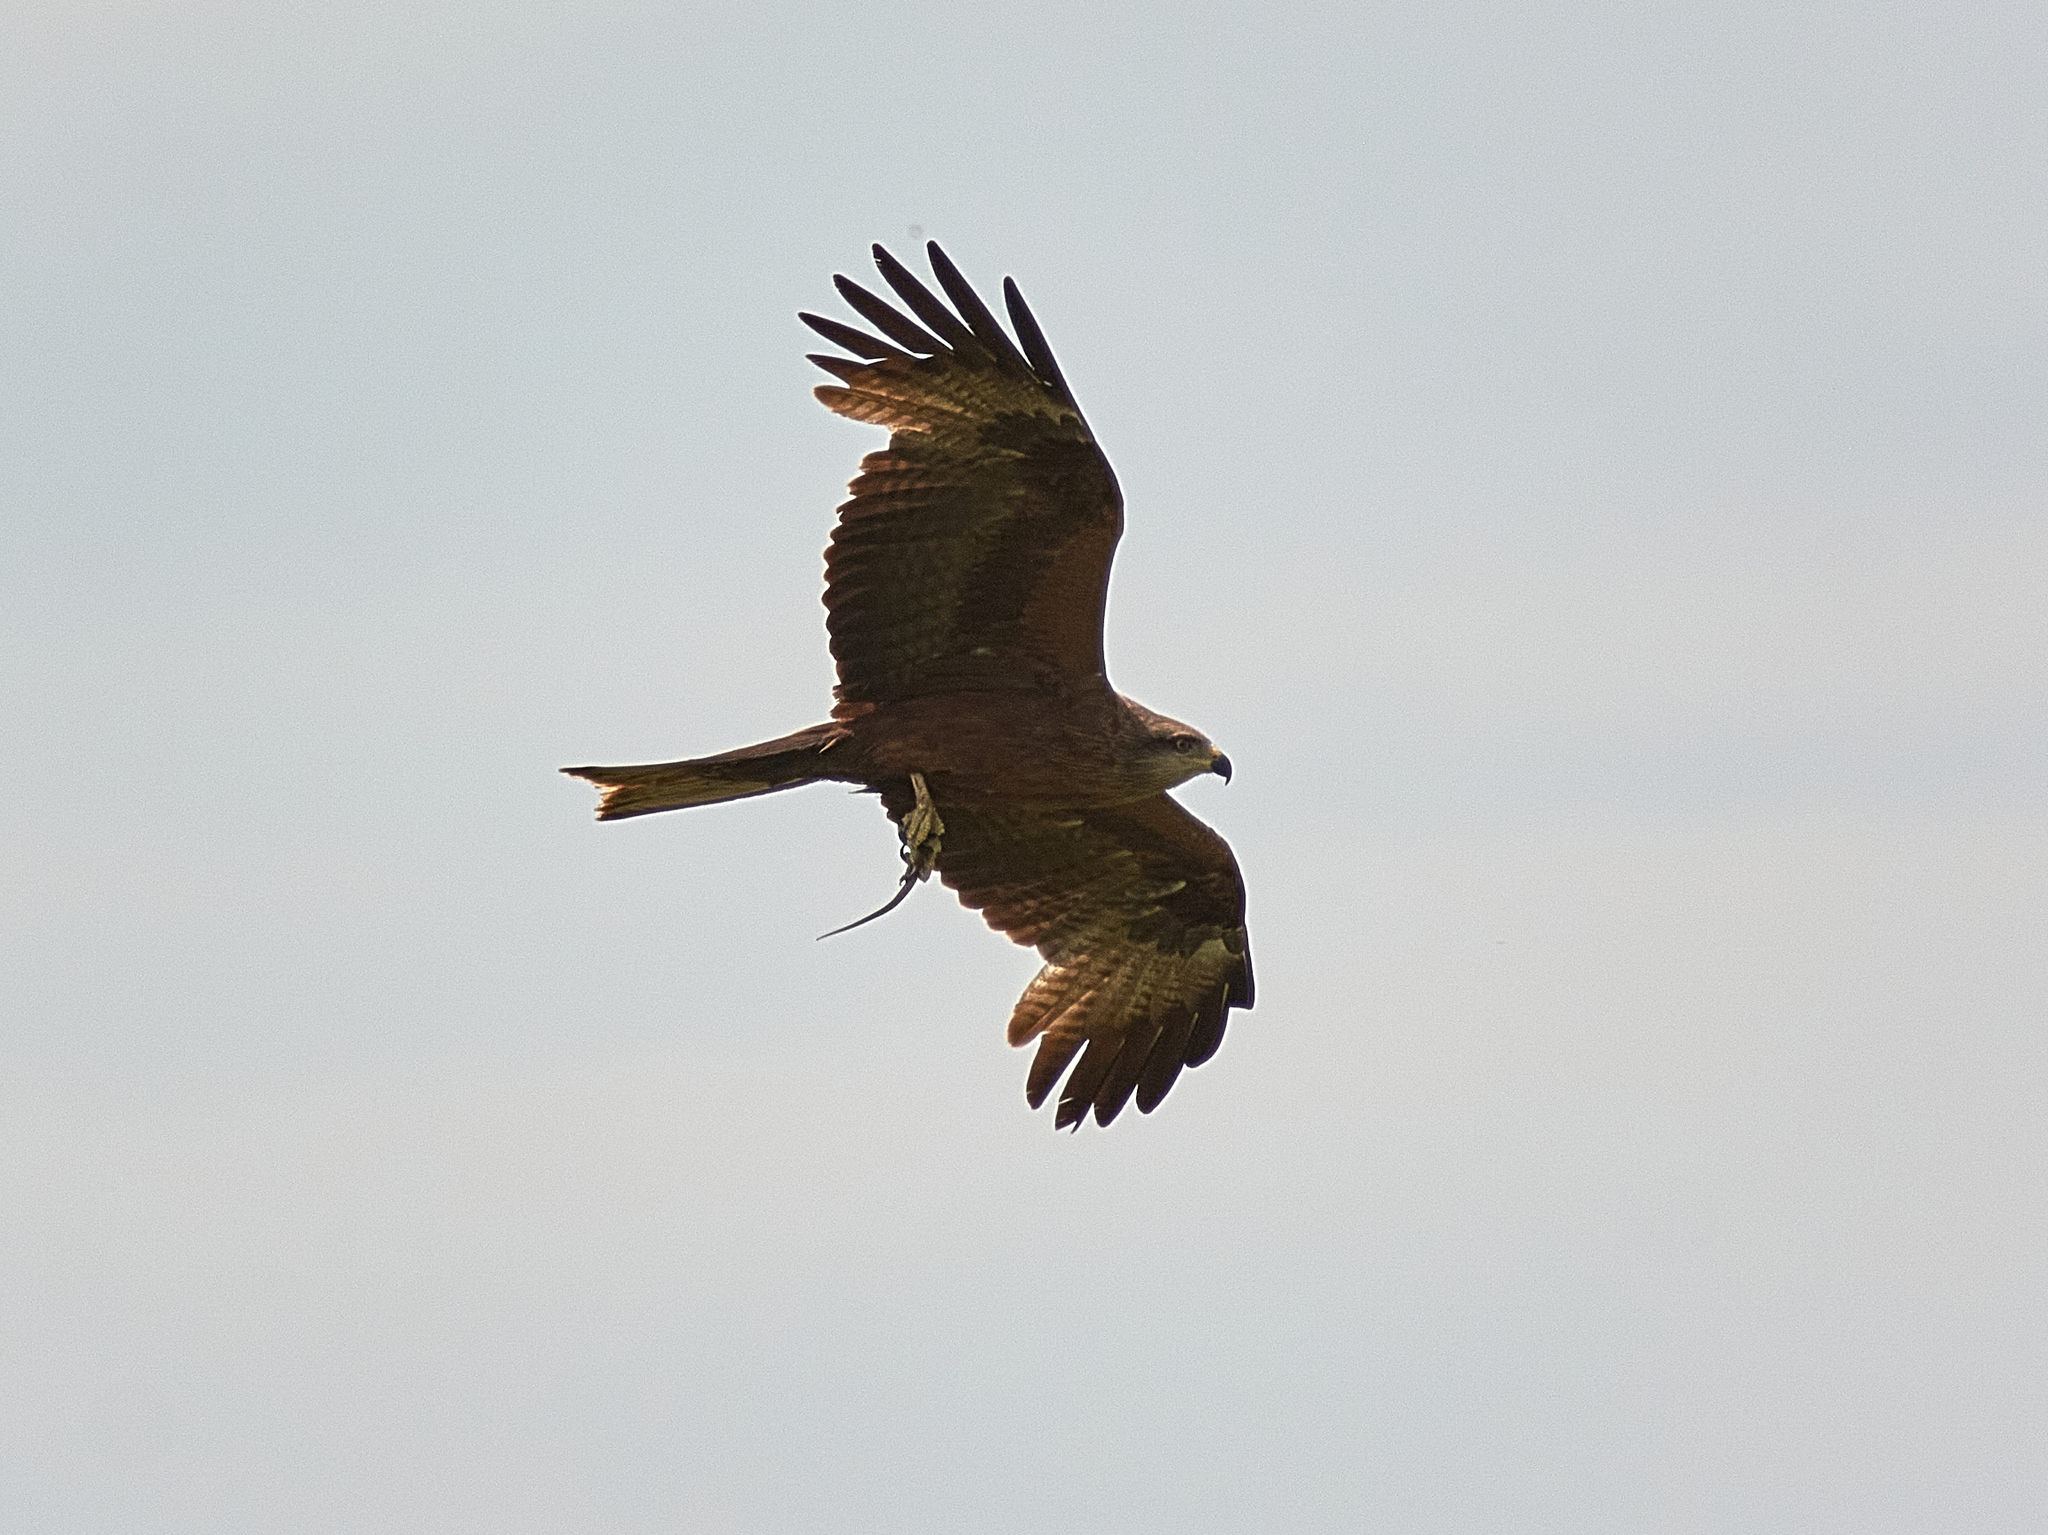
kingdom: Animalia
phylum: Chordata
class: Aves
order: Accipitriformes
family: Accipitridae
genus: Milvus
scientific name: Milvus migrans
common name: Black kite
